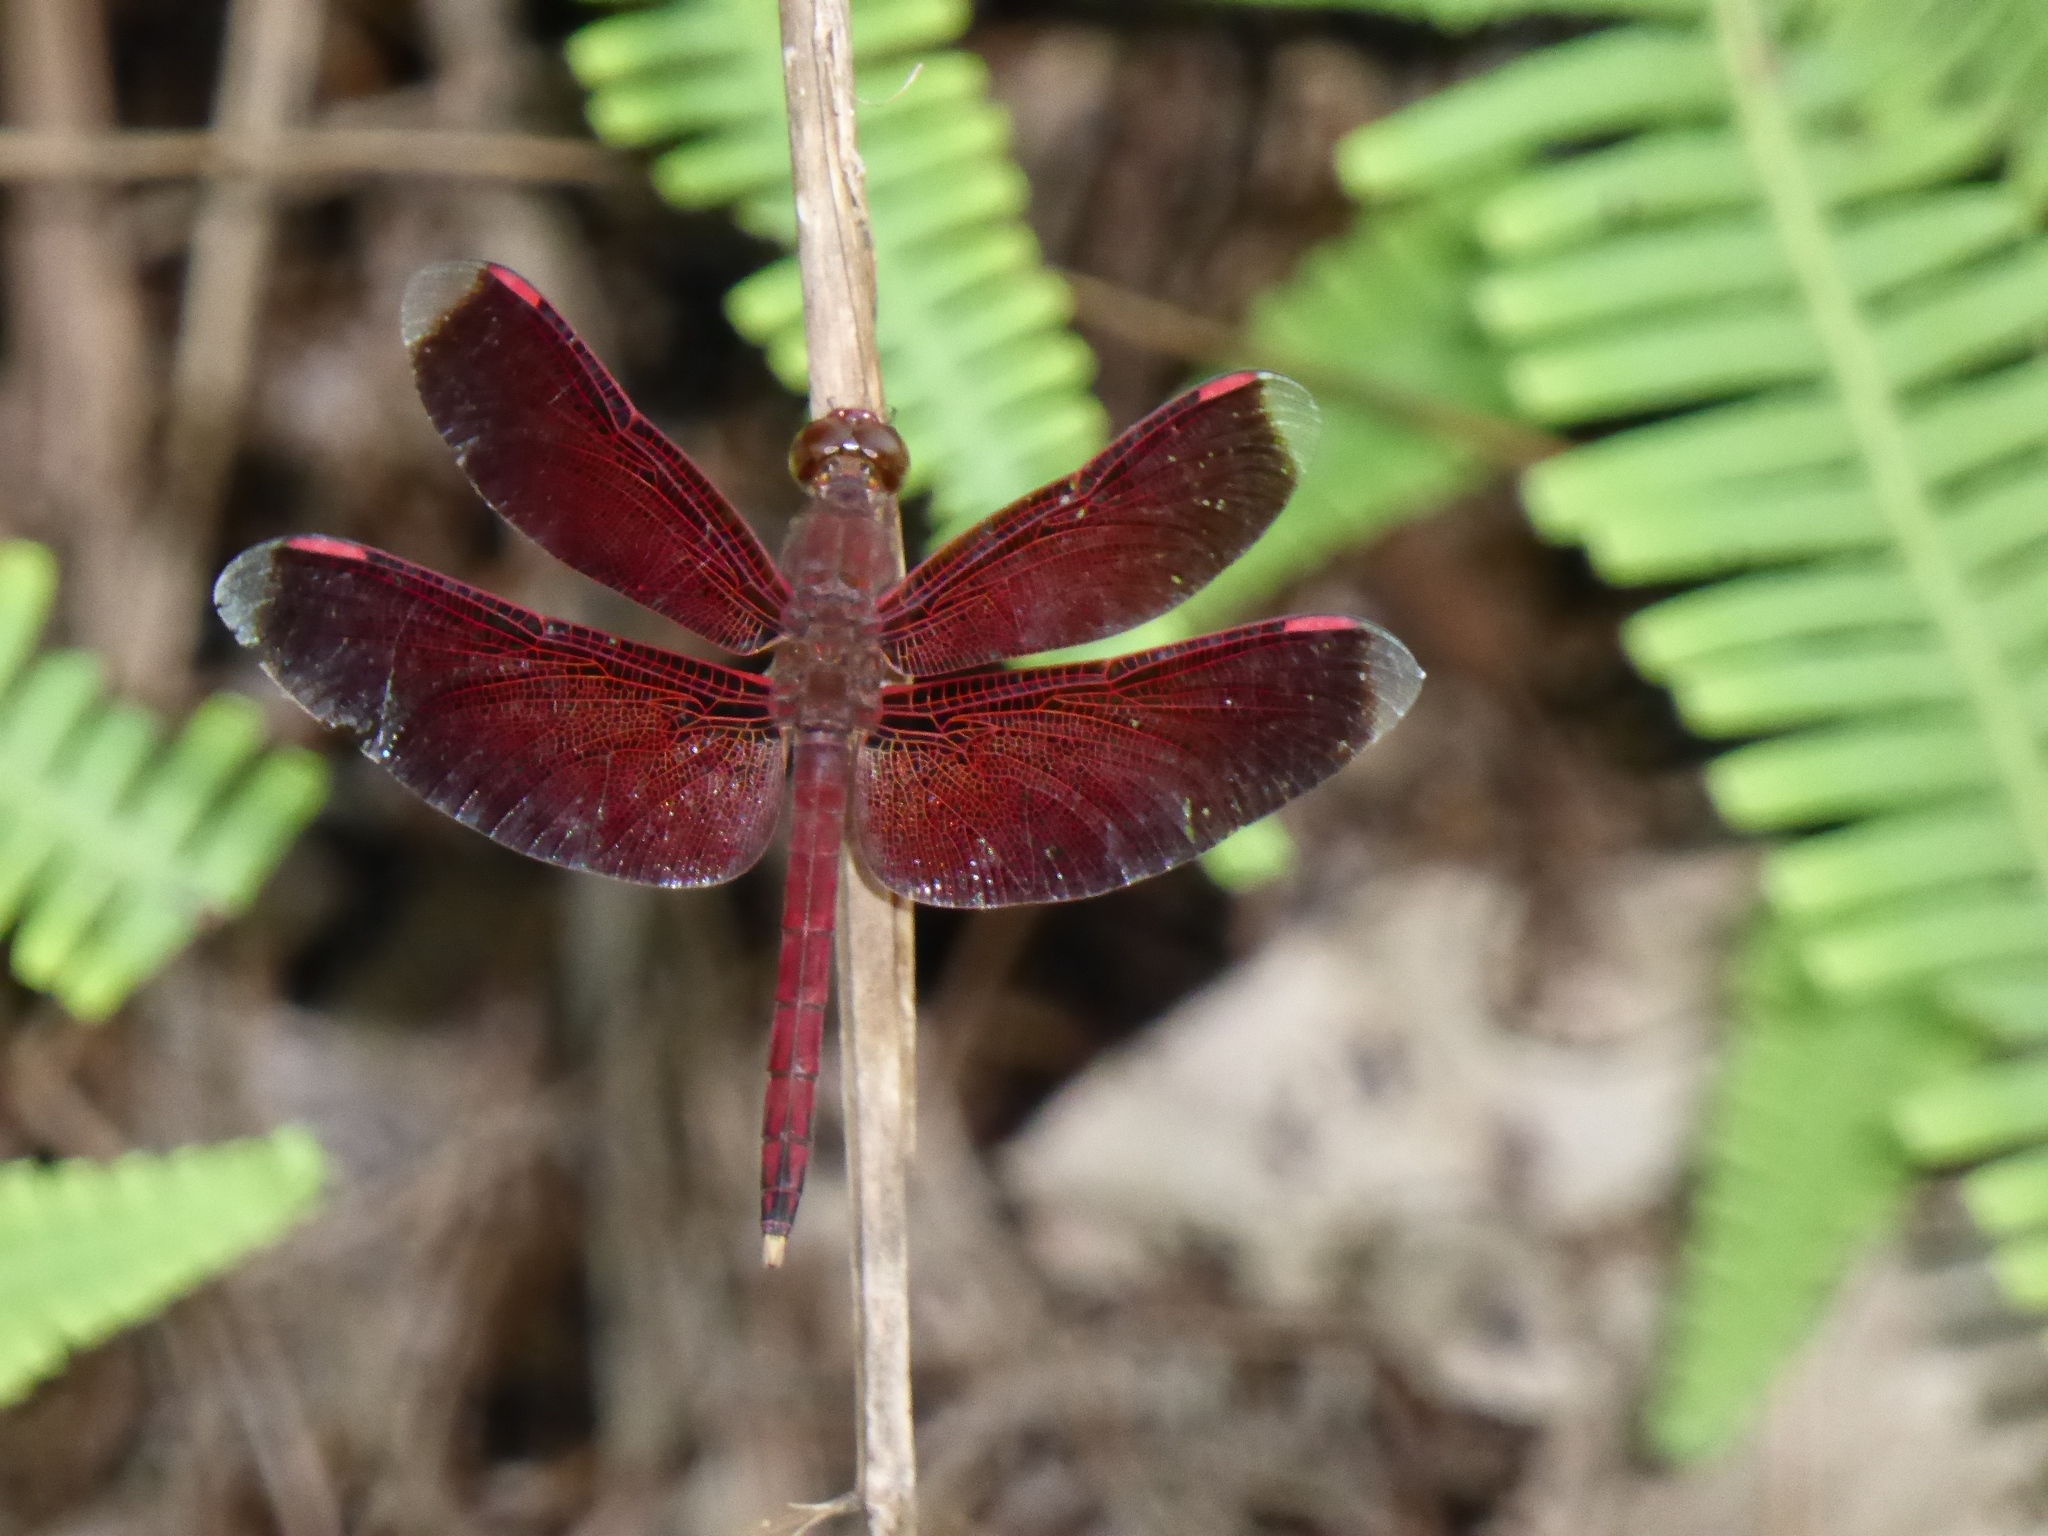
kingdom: Animalia
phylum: Arthropoda
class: Insecta
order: Odonata
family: Libellulidae
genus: Neurothemis
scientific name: Neurothemis terminata
